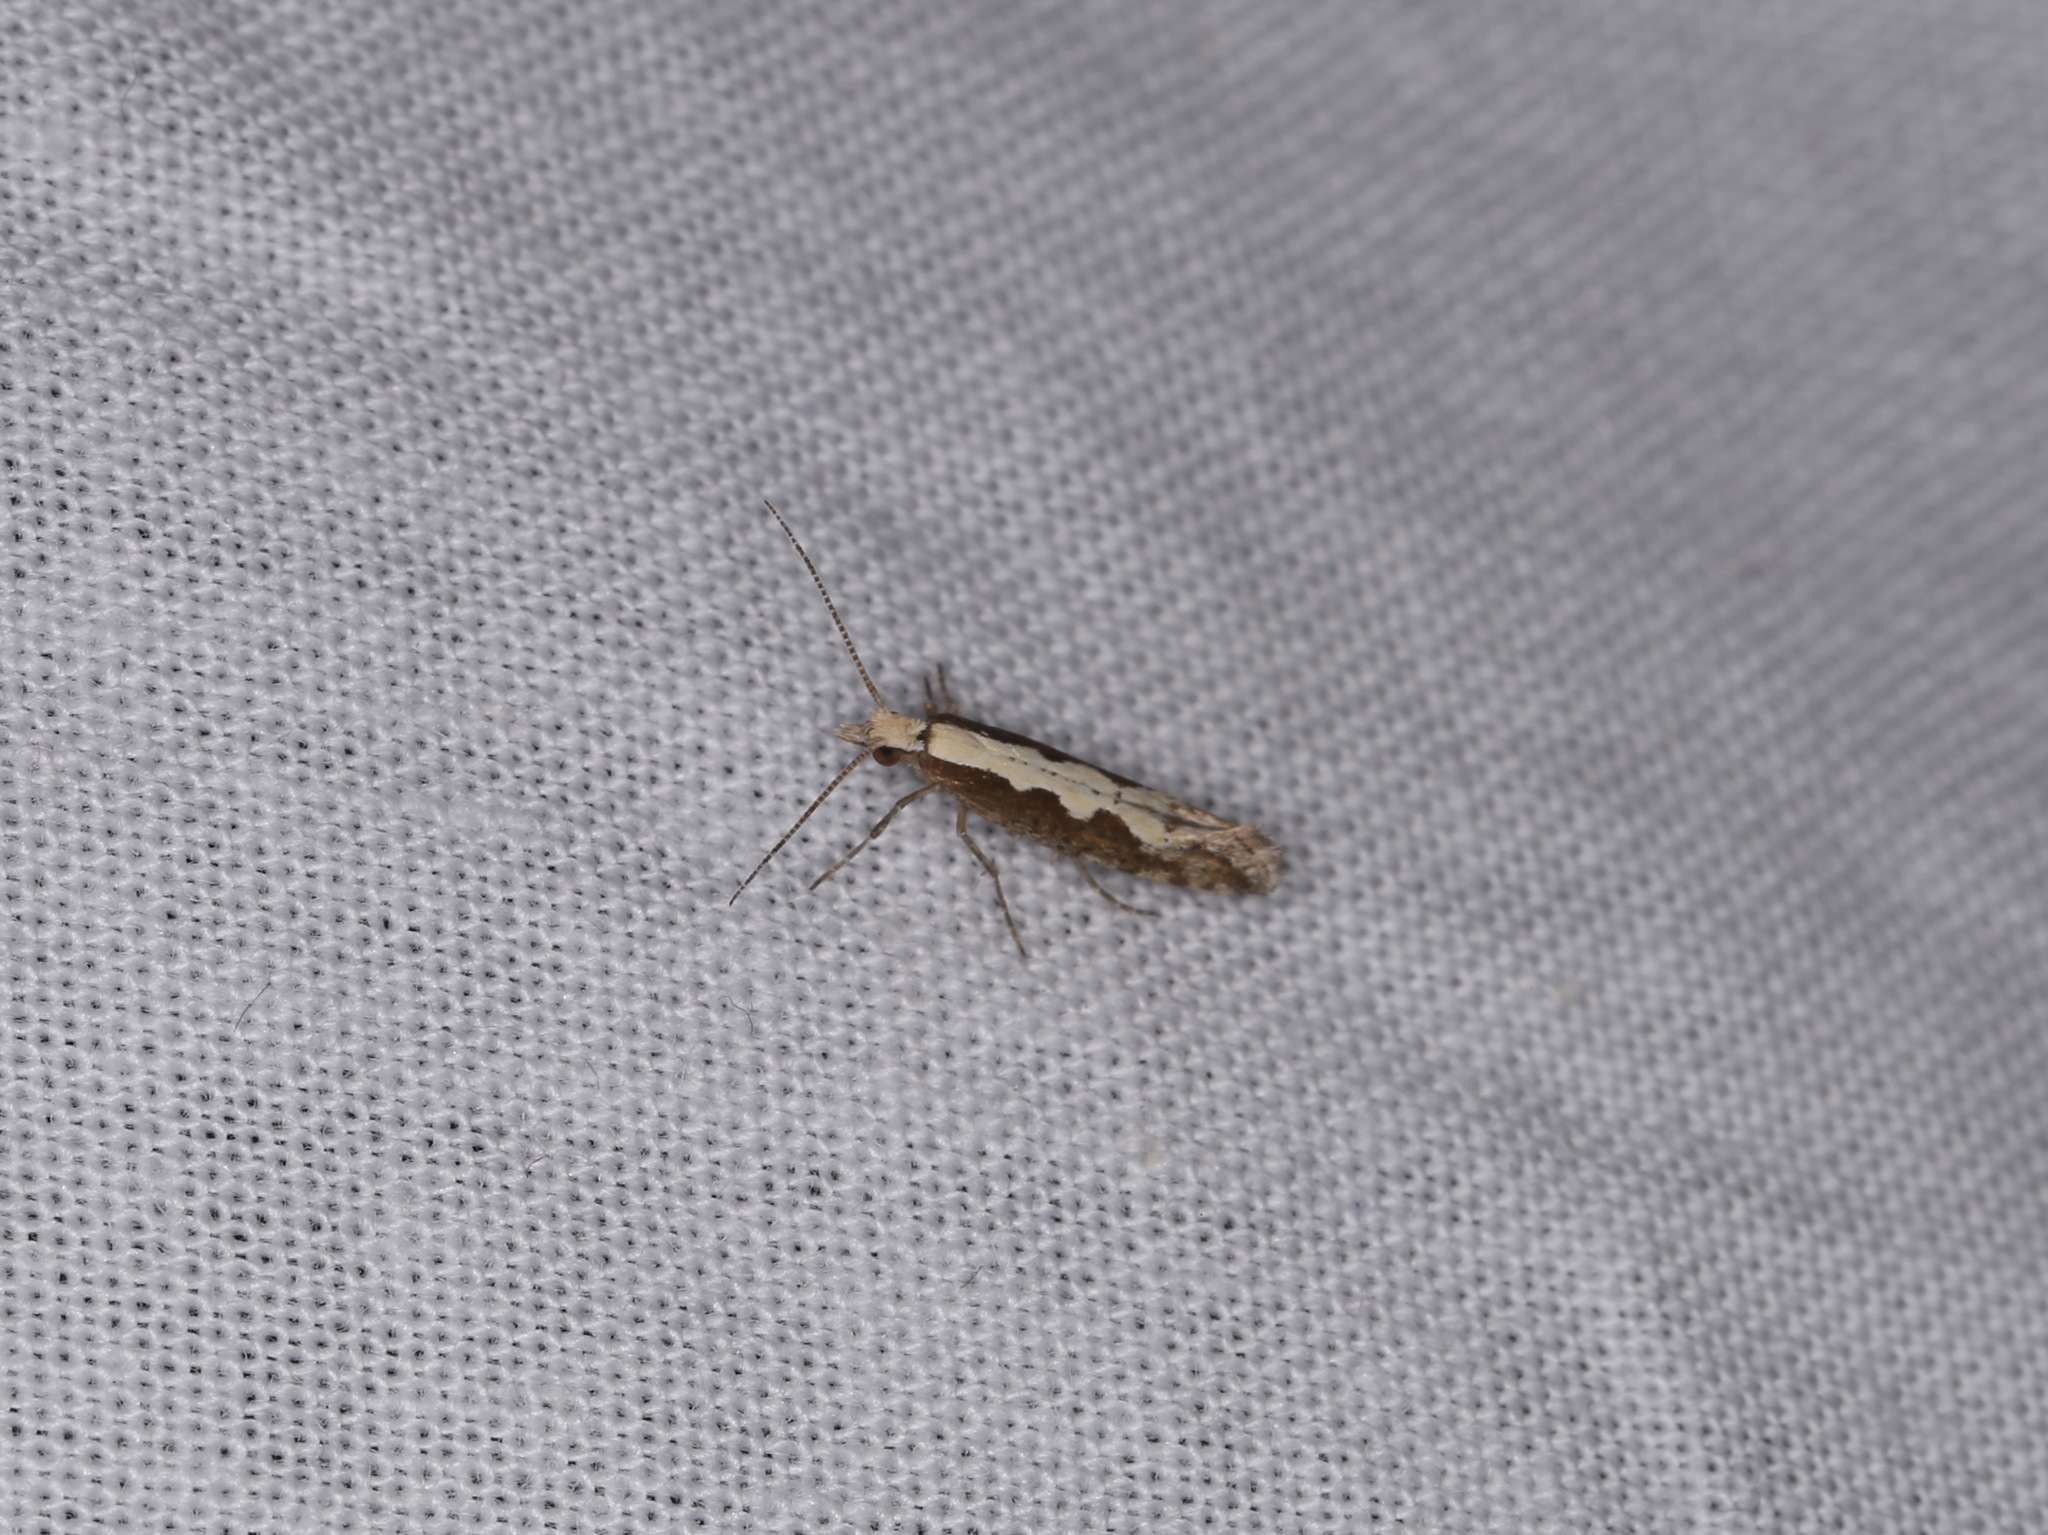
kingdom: Animalia
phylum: Arthropoda
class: Insecta
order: Lepidoptera
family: Plutellidae
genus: Plutella
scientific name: Plutella xylostella
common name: Diamond-back moth
